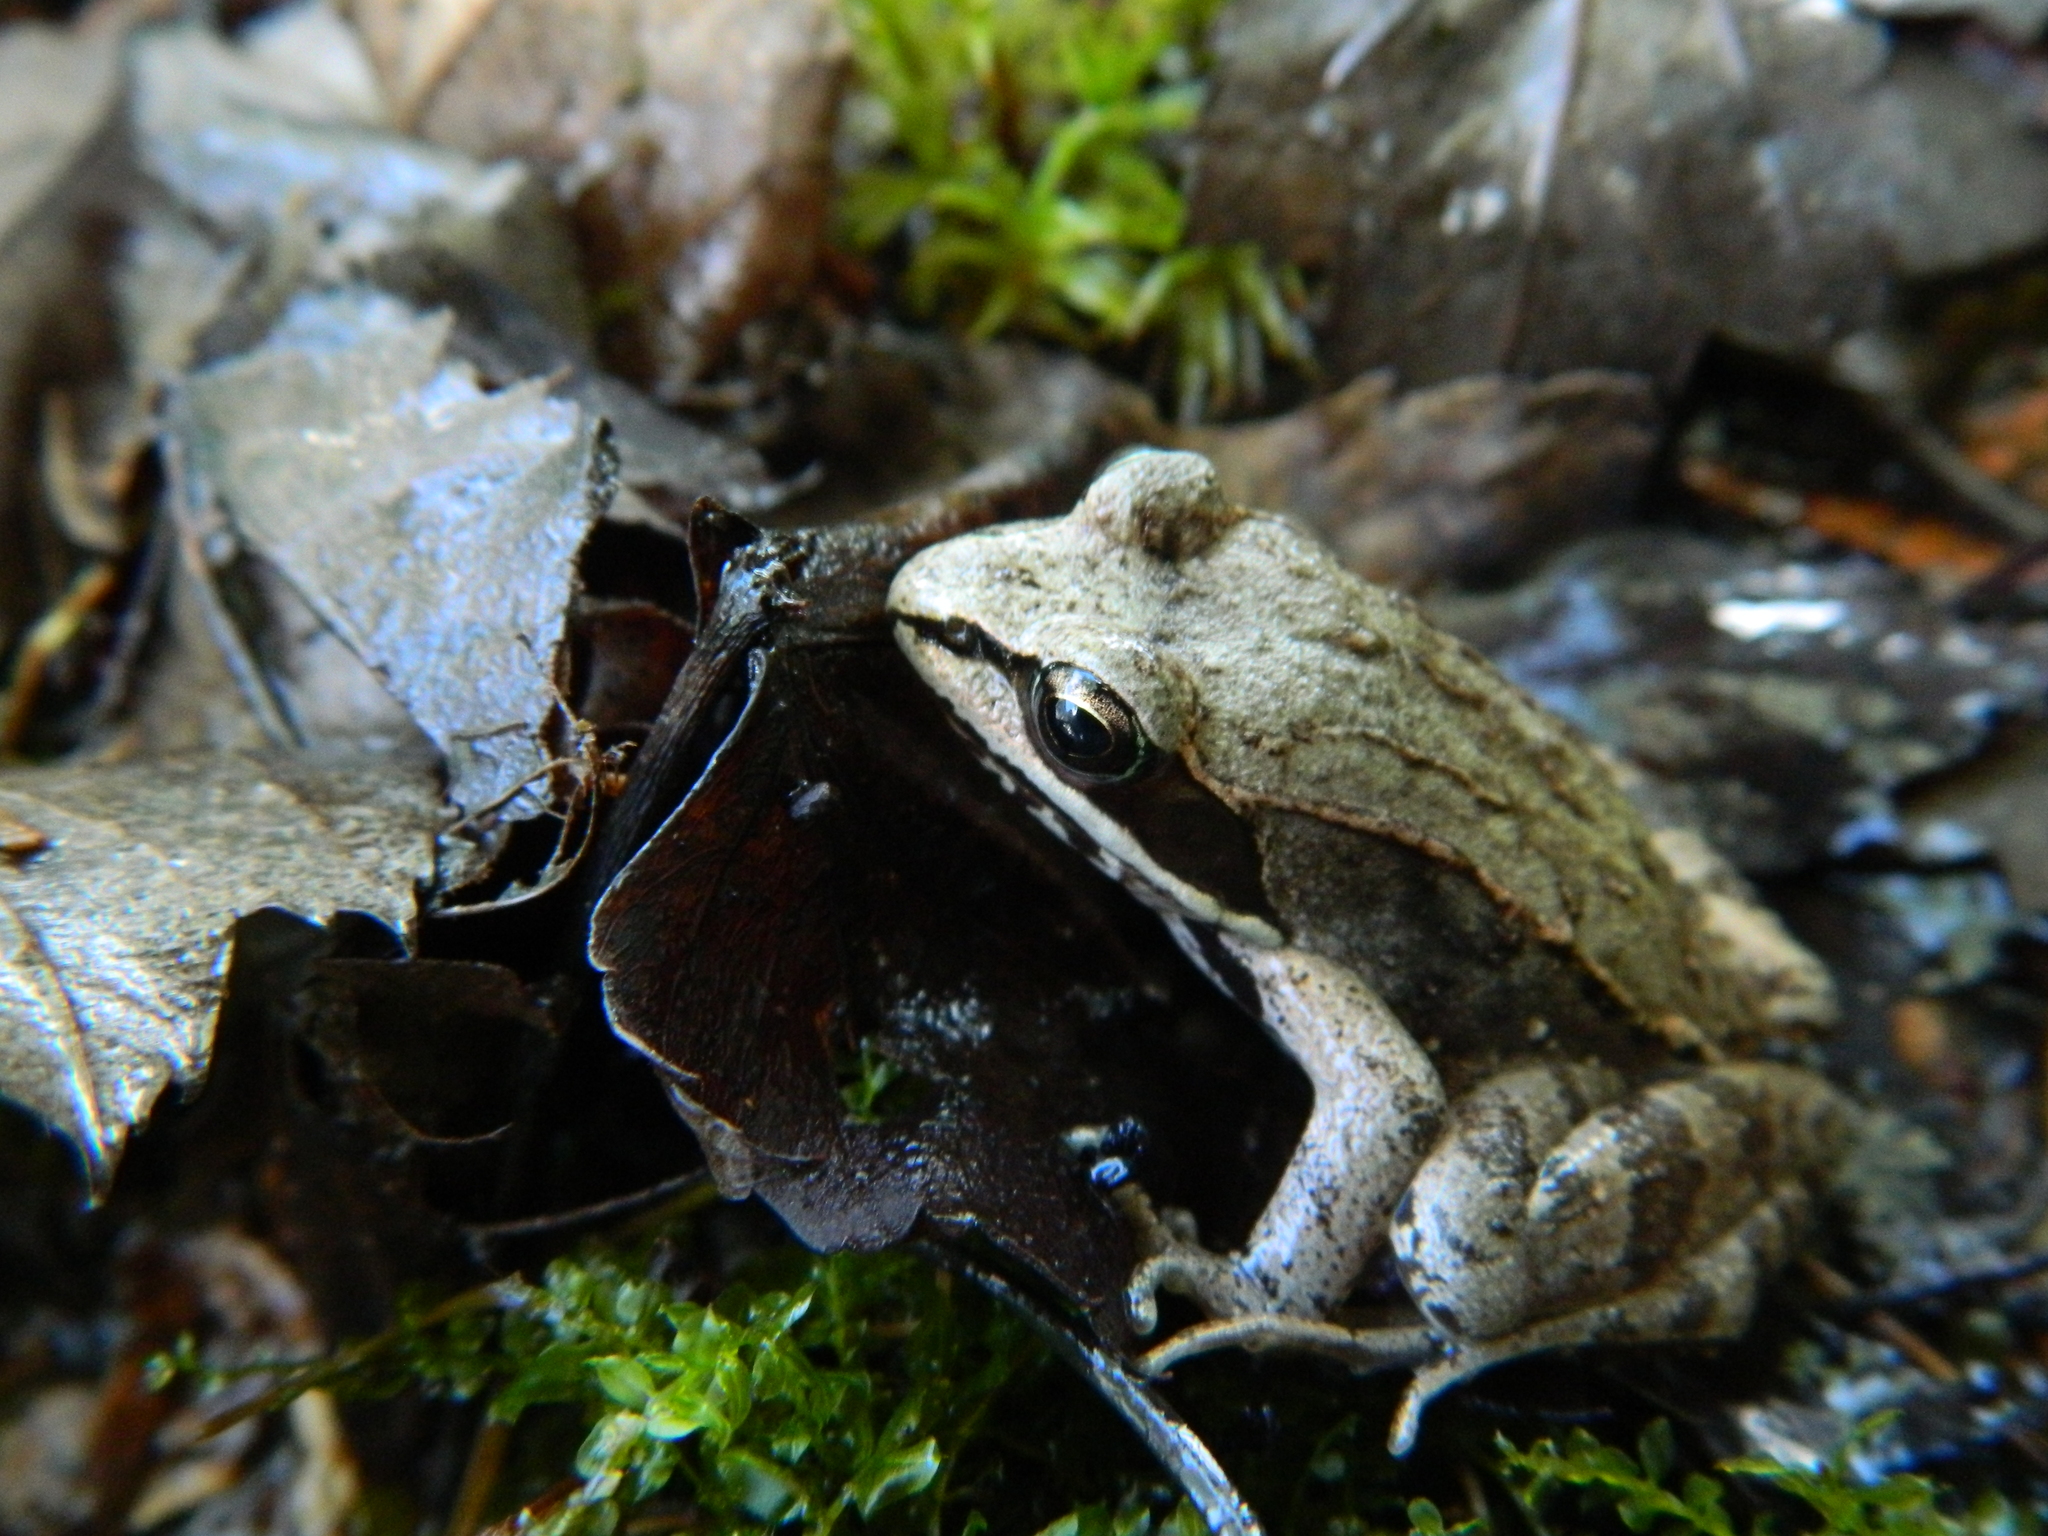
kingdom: Animalia
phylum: Chordata
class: Amphibia
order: Anura
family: Ranidae
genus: Lithobates
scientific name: Lithobates sylvaticus
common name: Wood frog
